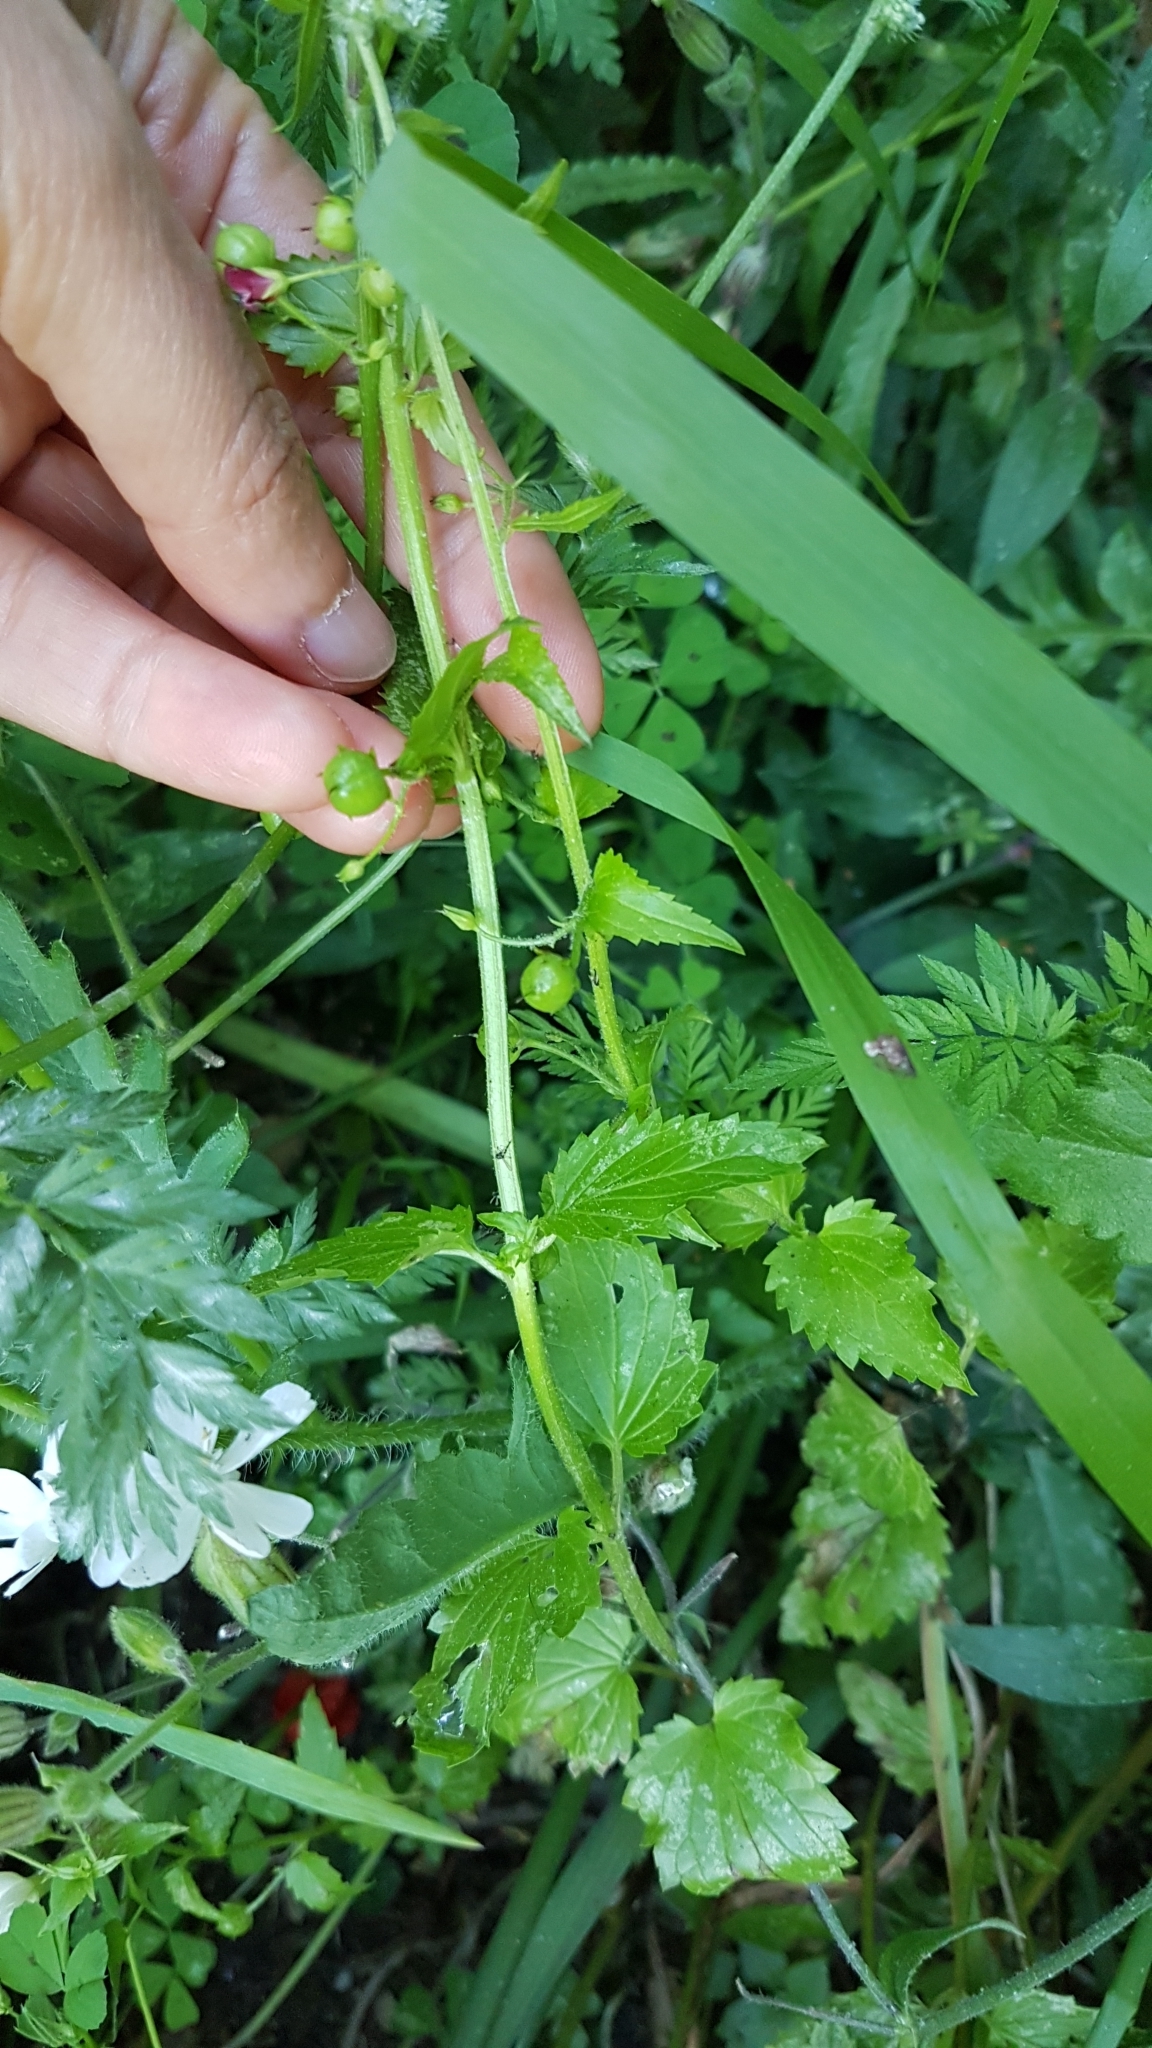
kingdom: Plantae
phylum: Tracheophyta
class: Magnoliopsida
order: Lamiales
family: Scrophulariaceae
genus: Scrophularia
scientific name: Scrophularia peregrina
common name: Mediterranean figwort
